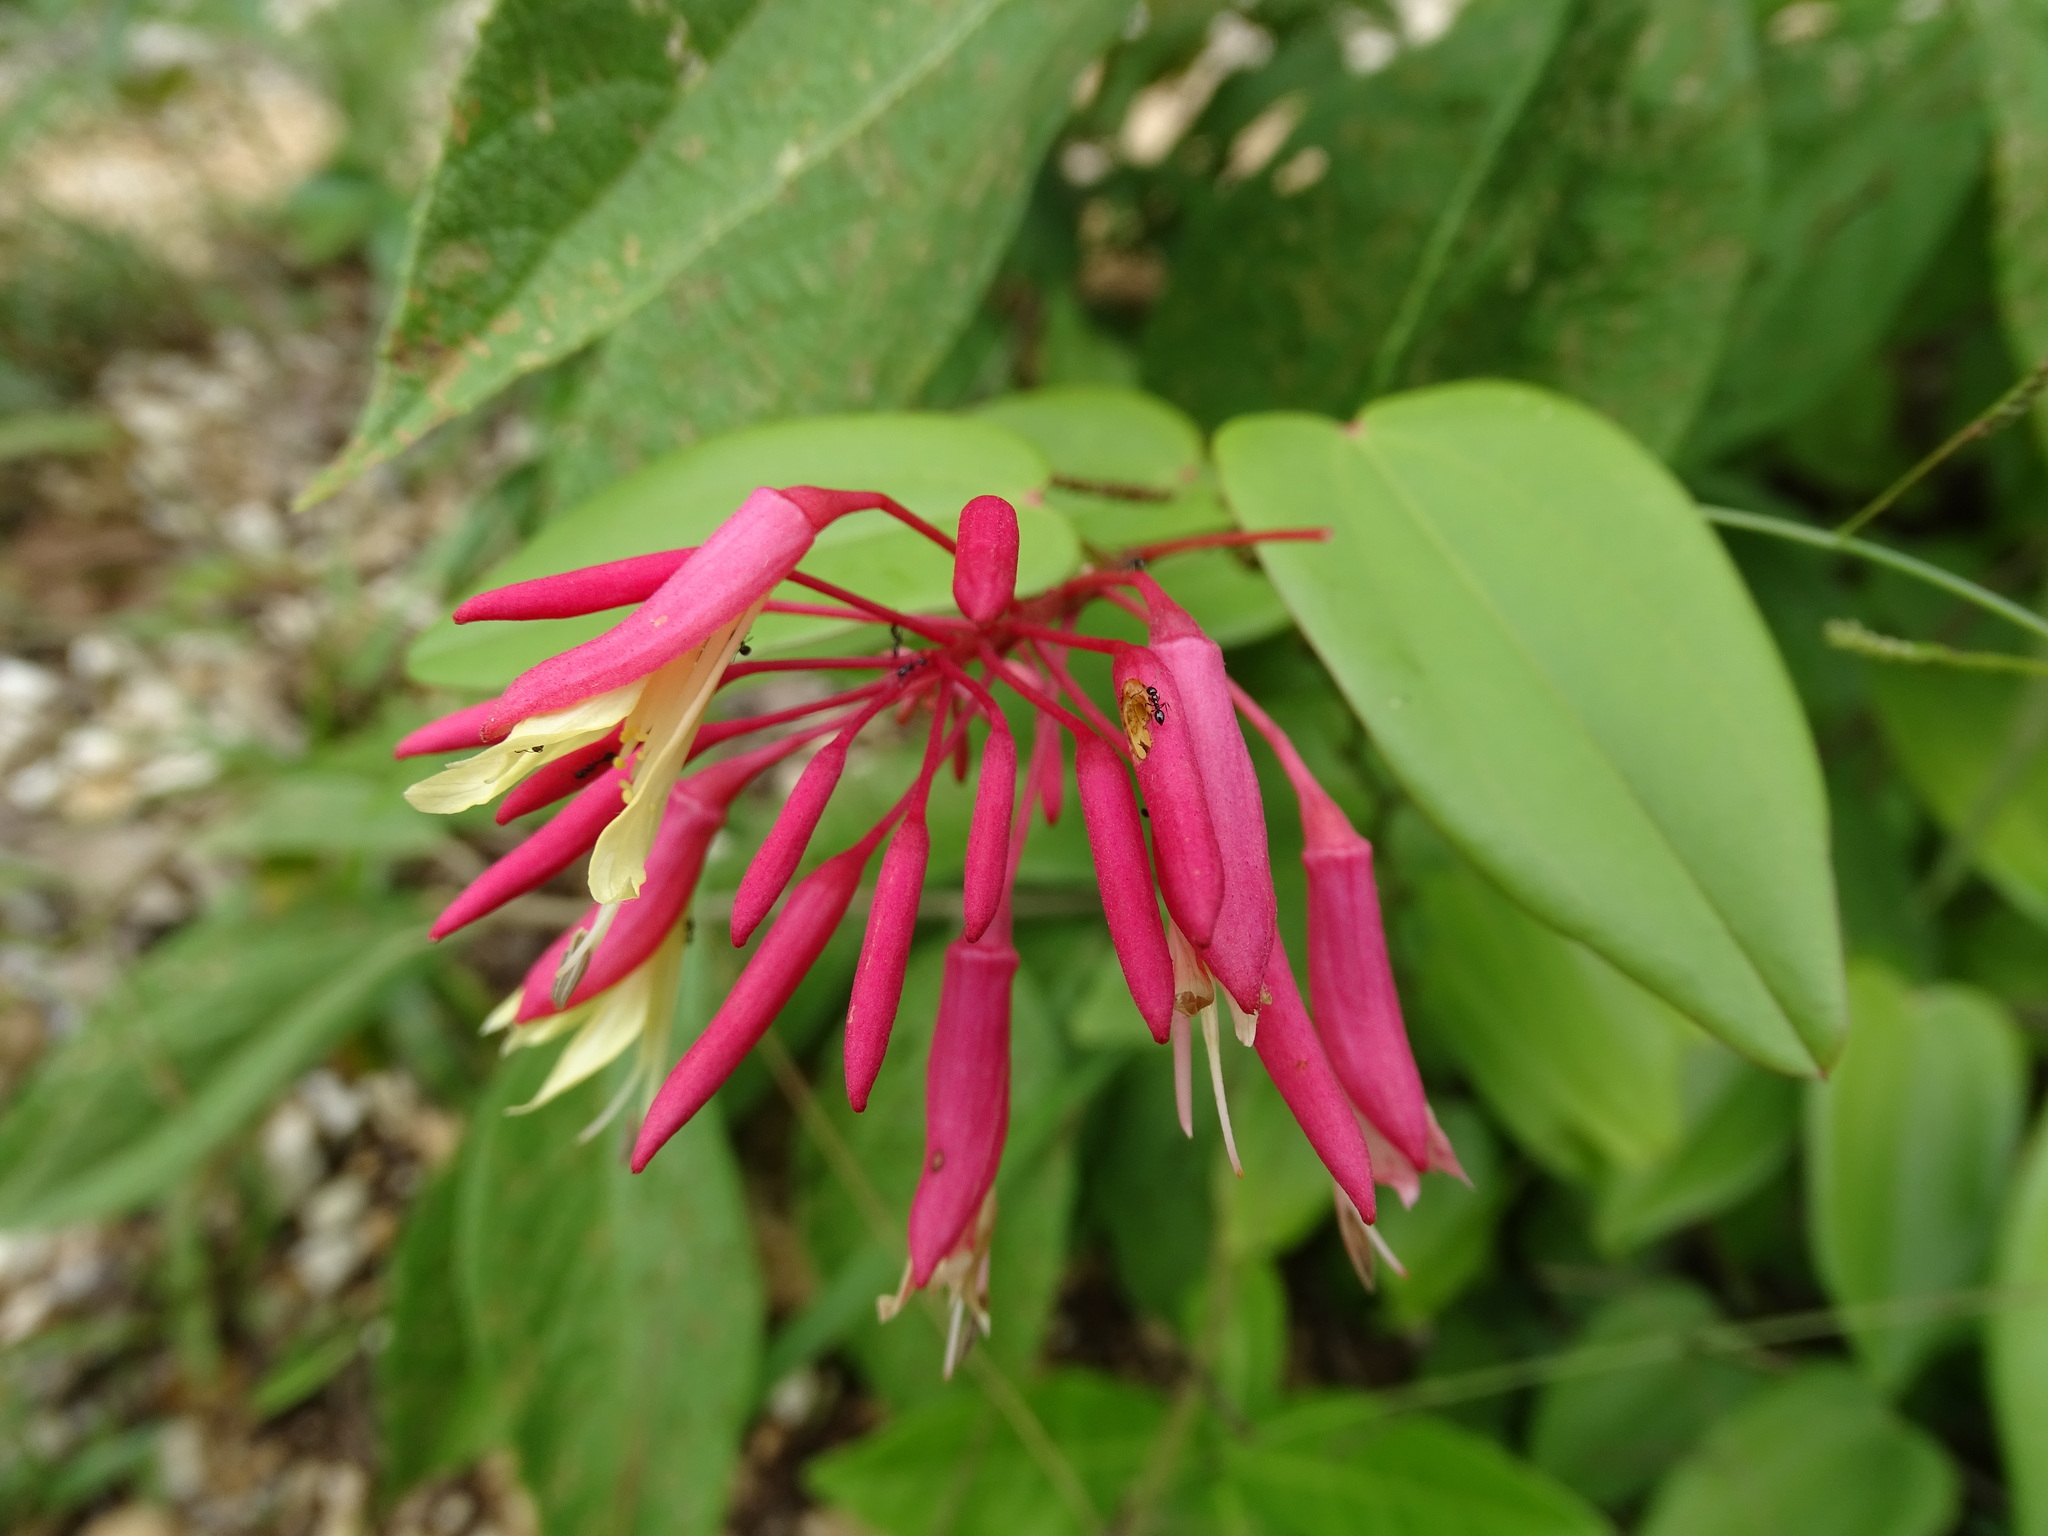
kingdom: Plantae
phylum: Tracheophyta
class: Magnoliopsida
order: Fabales
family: Fabaceae
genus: Bauhinia
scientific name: Bauhinia jenningsii
